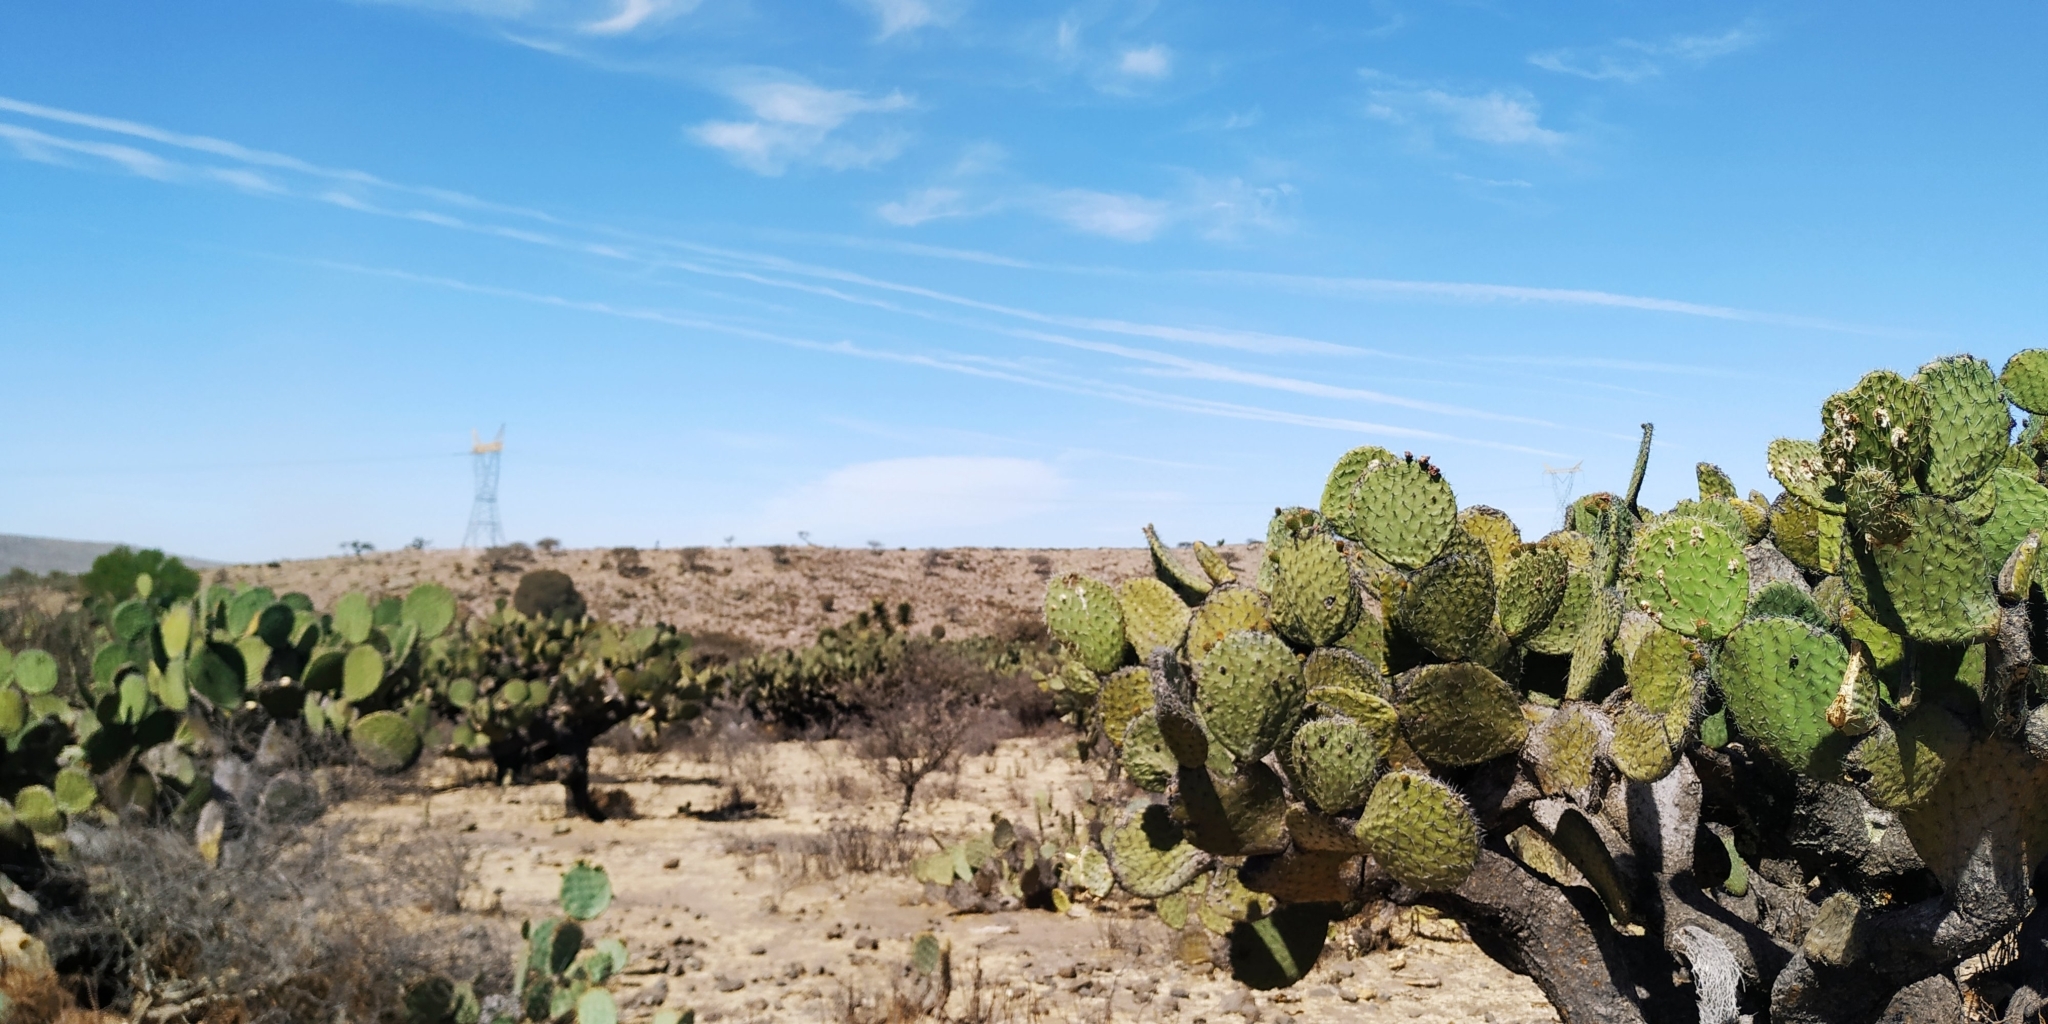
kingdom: Plantae
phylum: Tracheophyta
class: Magnoliopsida
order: Caryophyllales
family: Cactaceae
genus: Opuntia
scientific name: Opuntia streptacantha
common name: Gracemere-pear
